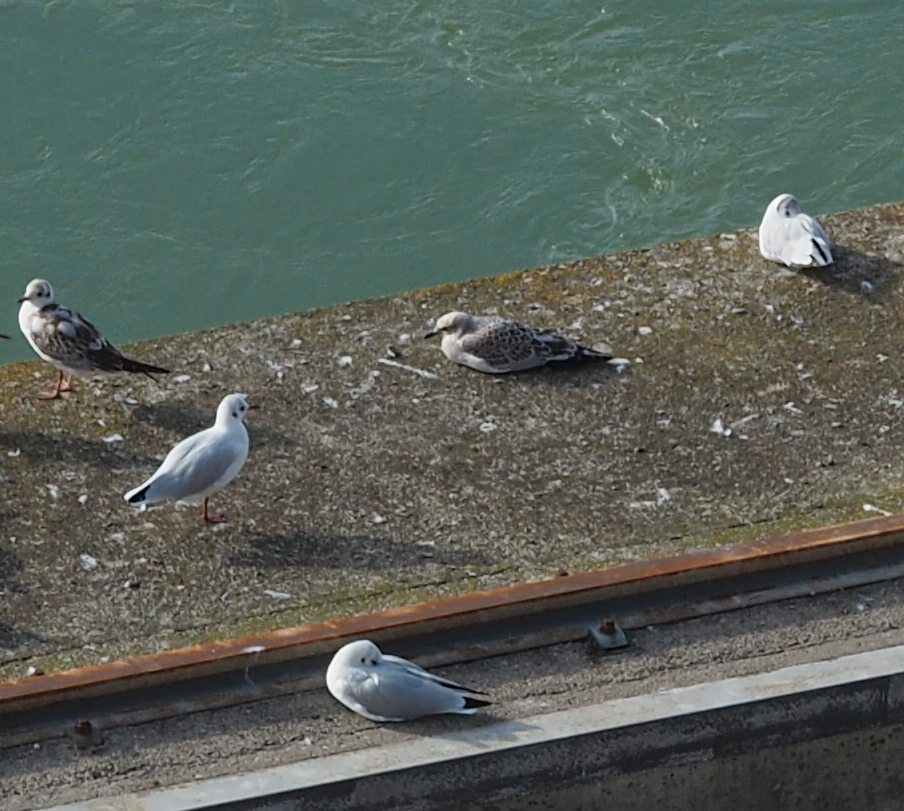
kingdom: Animalia
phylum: Chordata
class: Aves
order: Charadriiformes
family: Laridae
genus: Ichthyaetus
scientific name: Ichthyaetus melanocephalus
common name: Mediterranean gull
